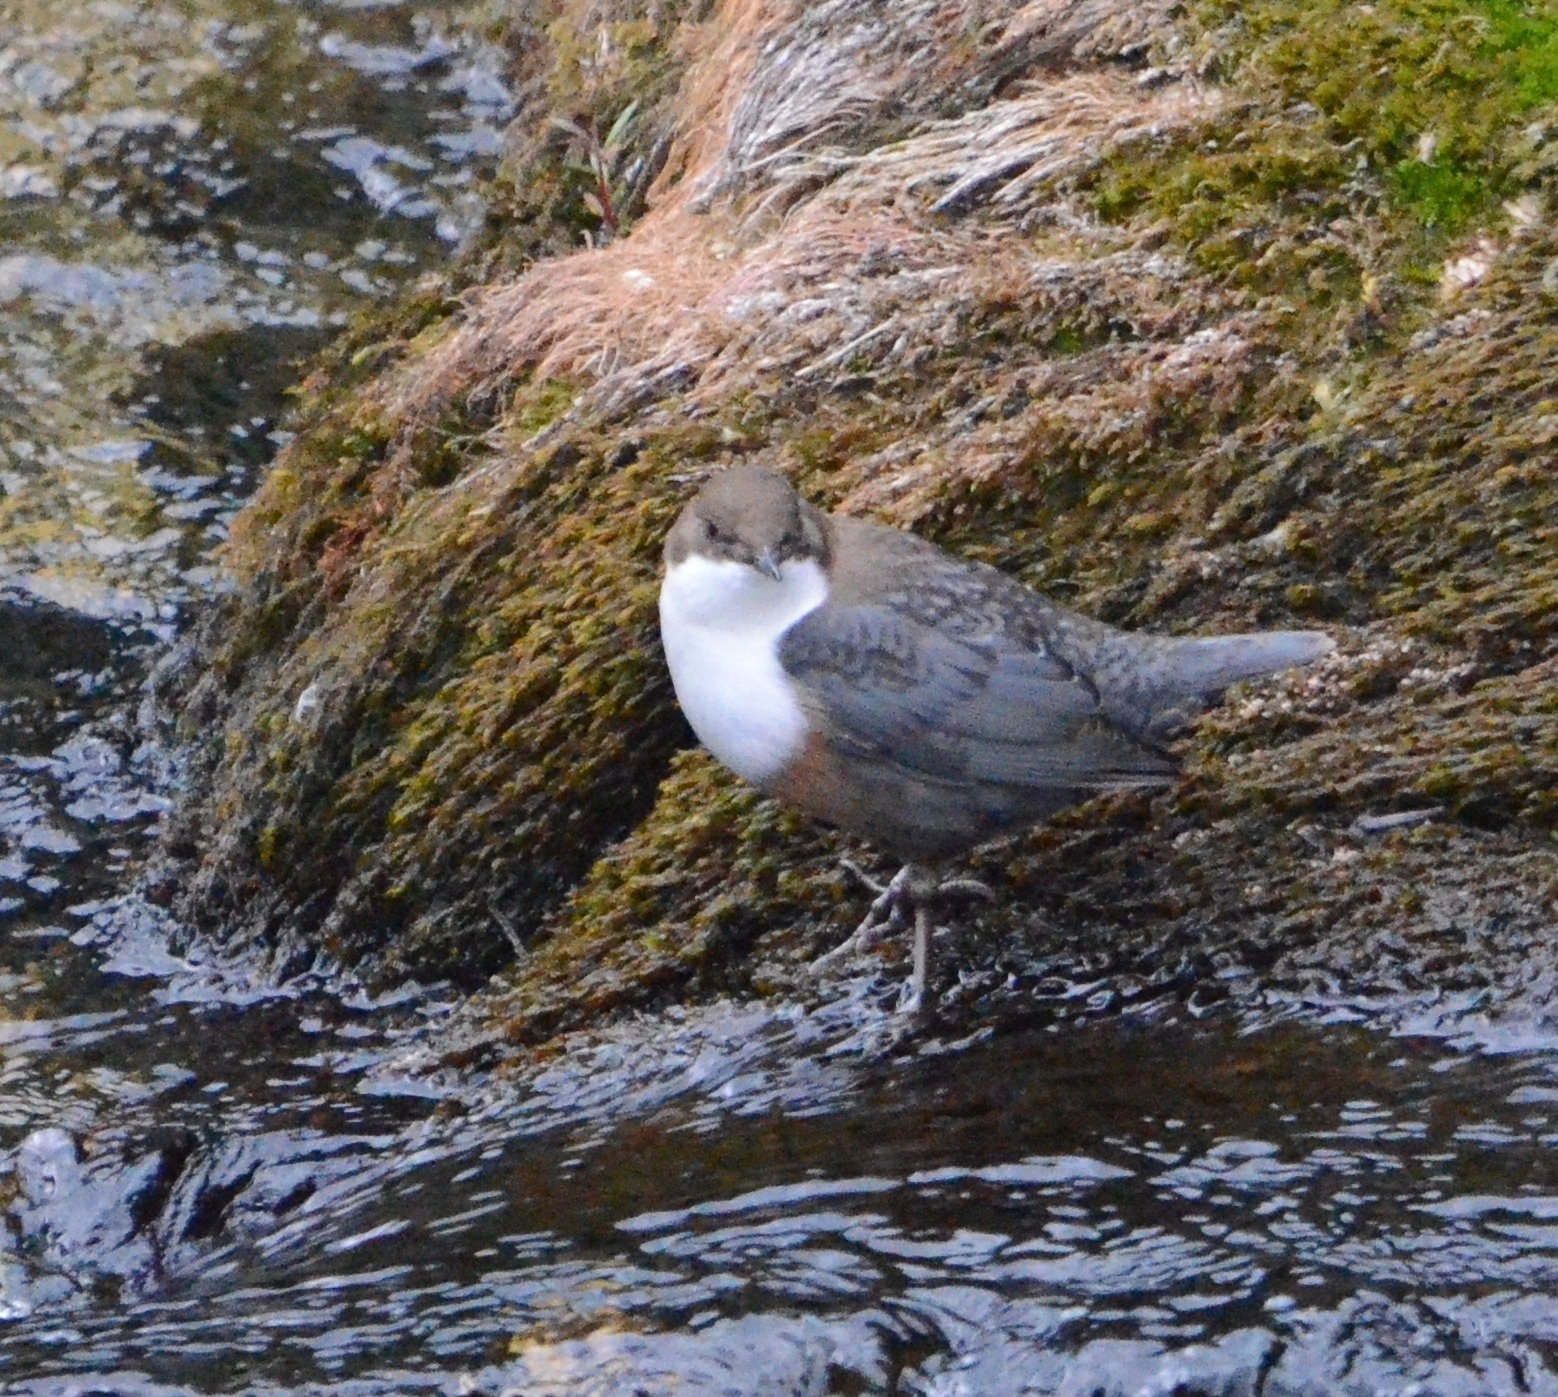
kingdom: Animalia
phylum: Chordata
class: Aves
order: Passeriformes
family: Cinclidae
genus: Cinclus
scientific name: Cinclus cinclus
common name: White-throated dipper
